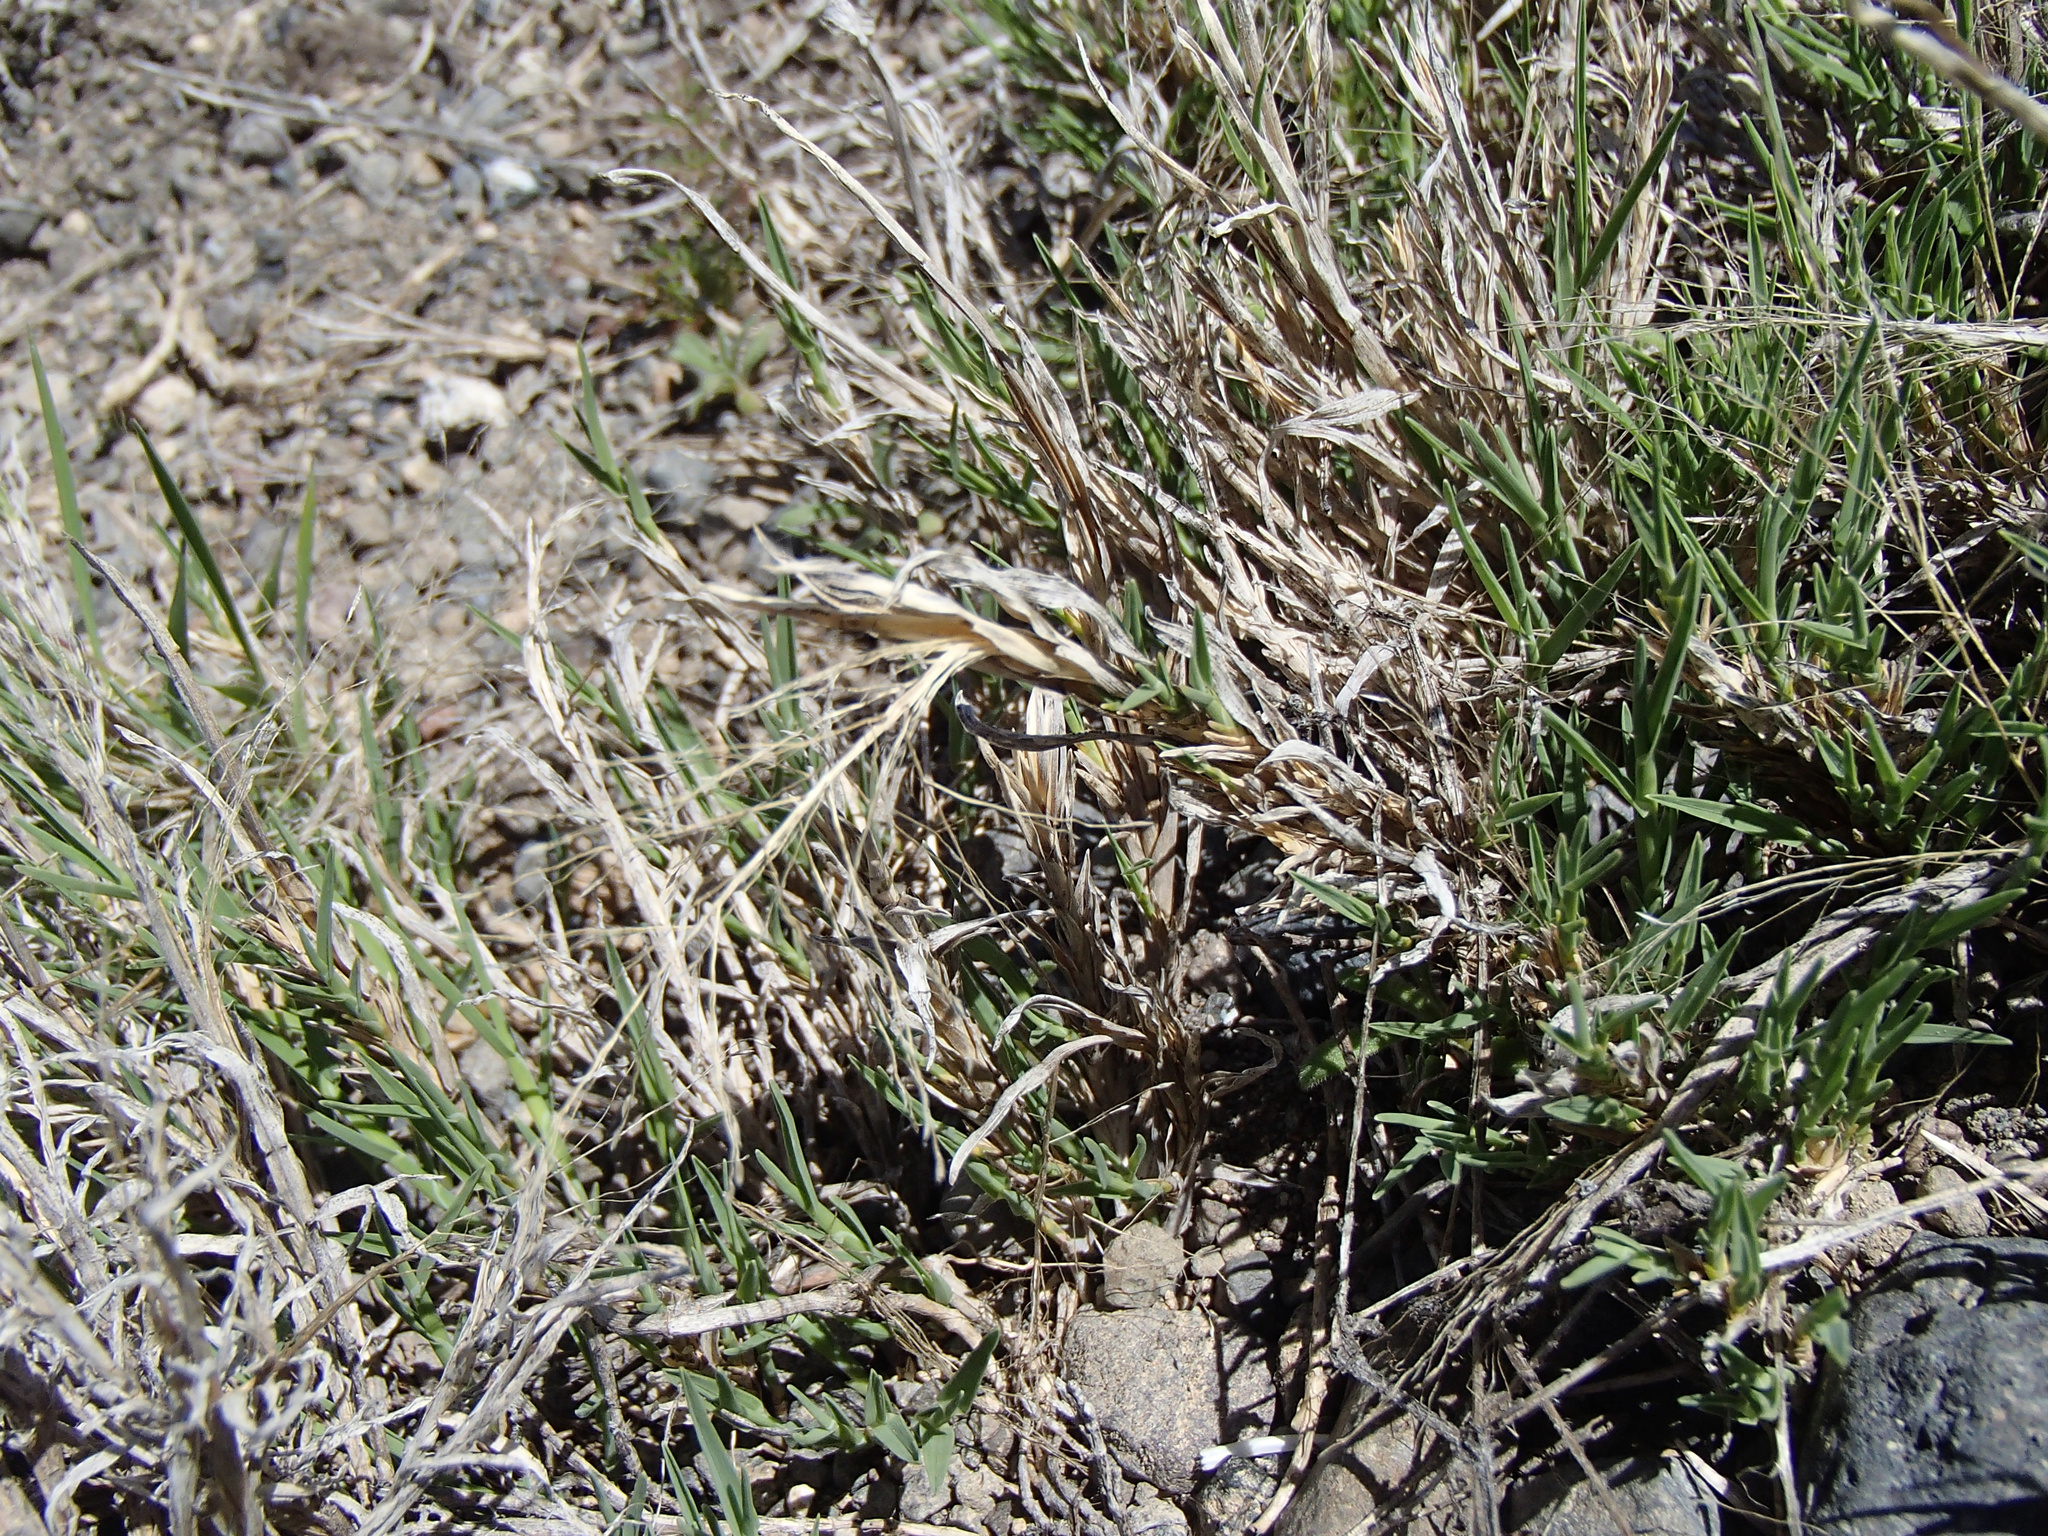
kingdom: Plantae
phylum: Tracheophyta
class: Liliopsida
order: Poales
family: Poaceae
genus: Muhlenbergia
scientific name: Muhlenbergia asperifolia
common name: Alkali muhly
